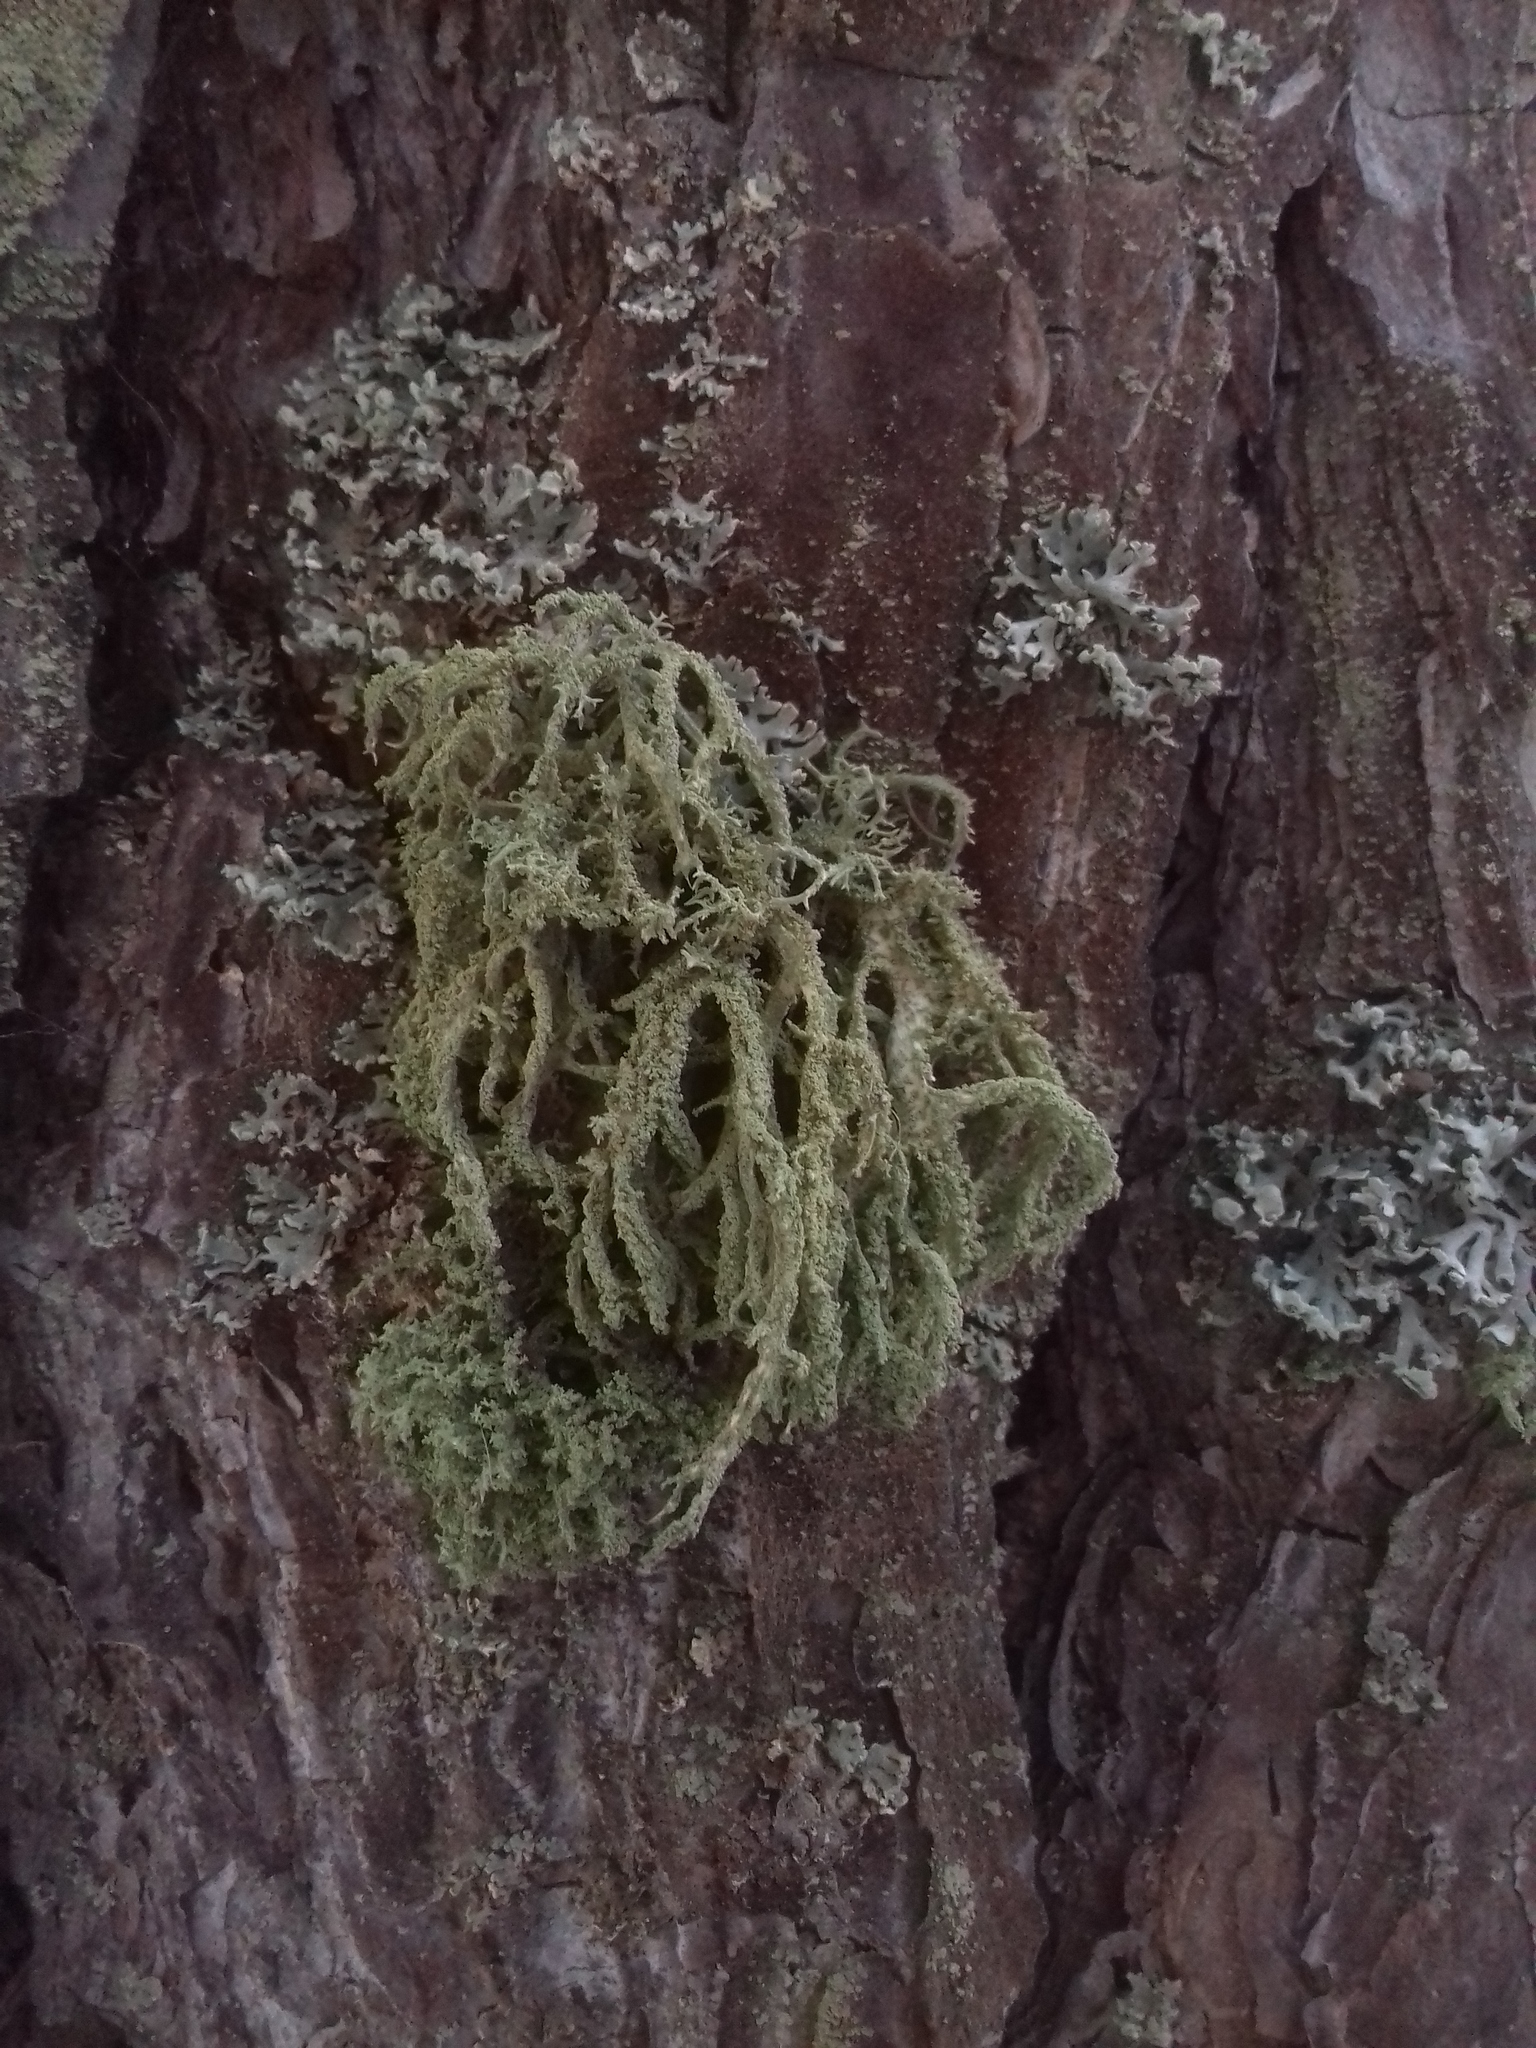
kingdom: Fungi
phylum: Ascomycota
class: Lecanoromycetes
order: Lecanorales
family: Parmeliaceae
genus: Evernia
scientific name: Evernia mesomorpha
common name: Boreal oak moss lichen
